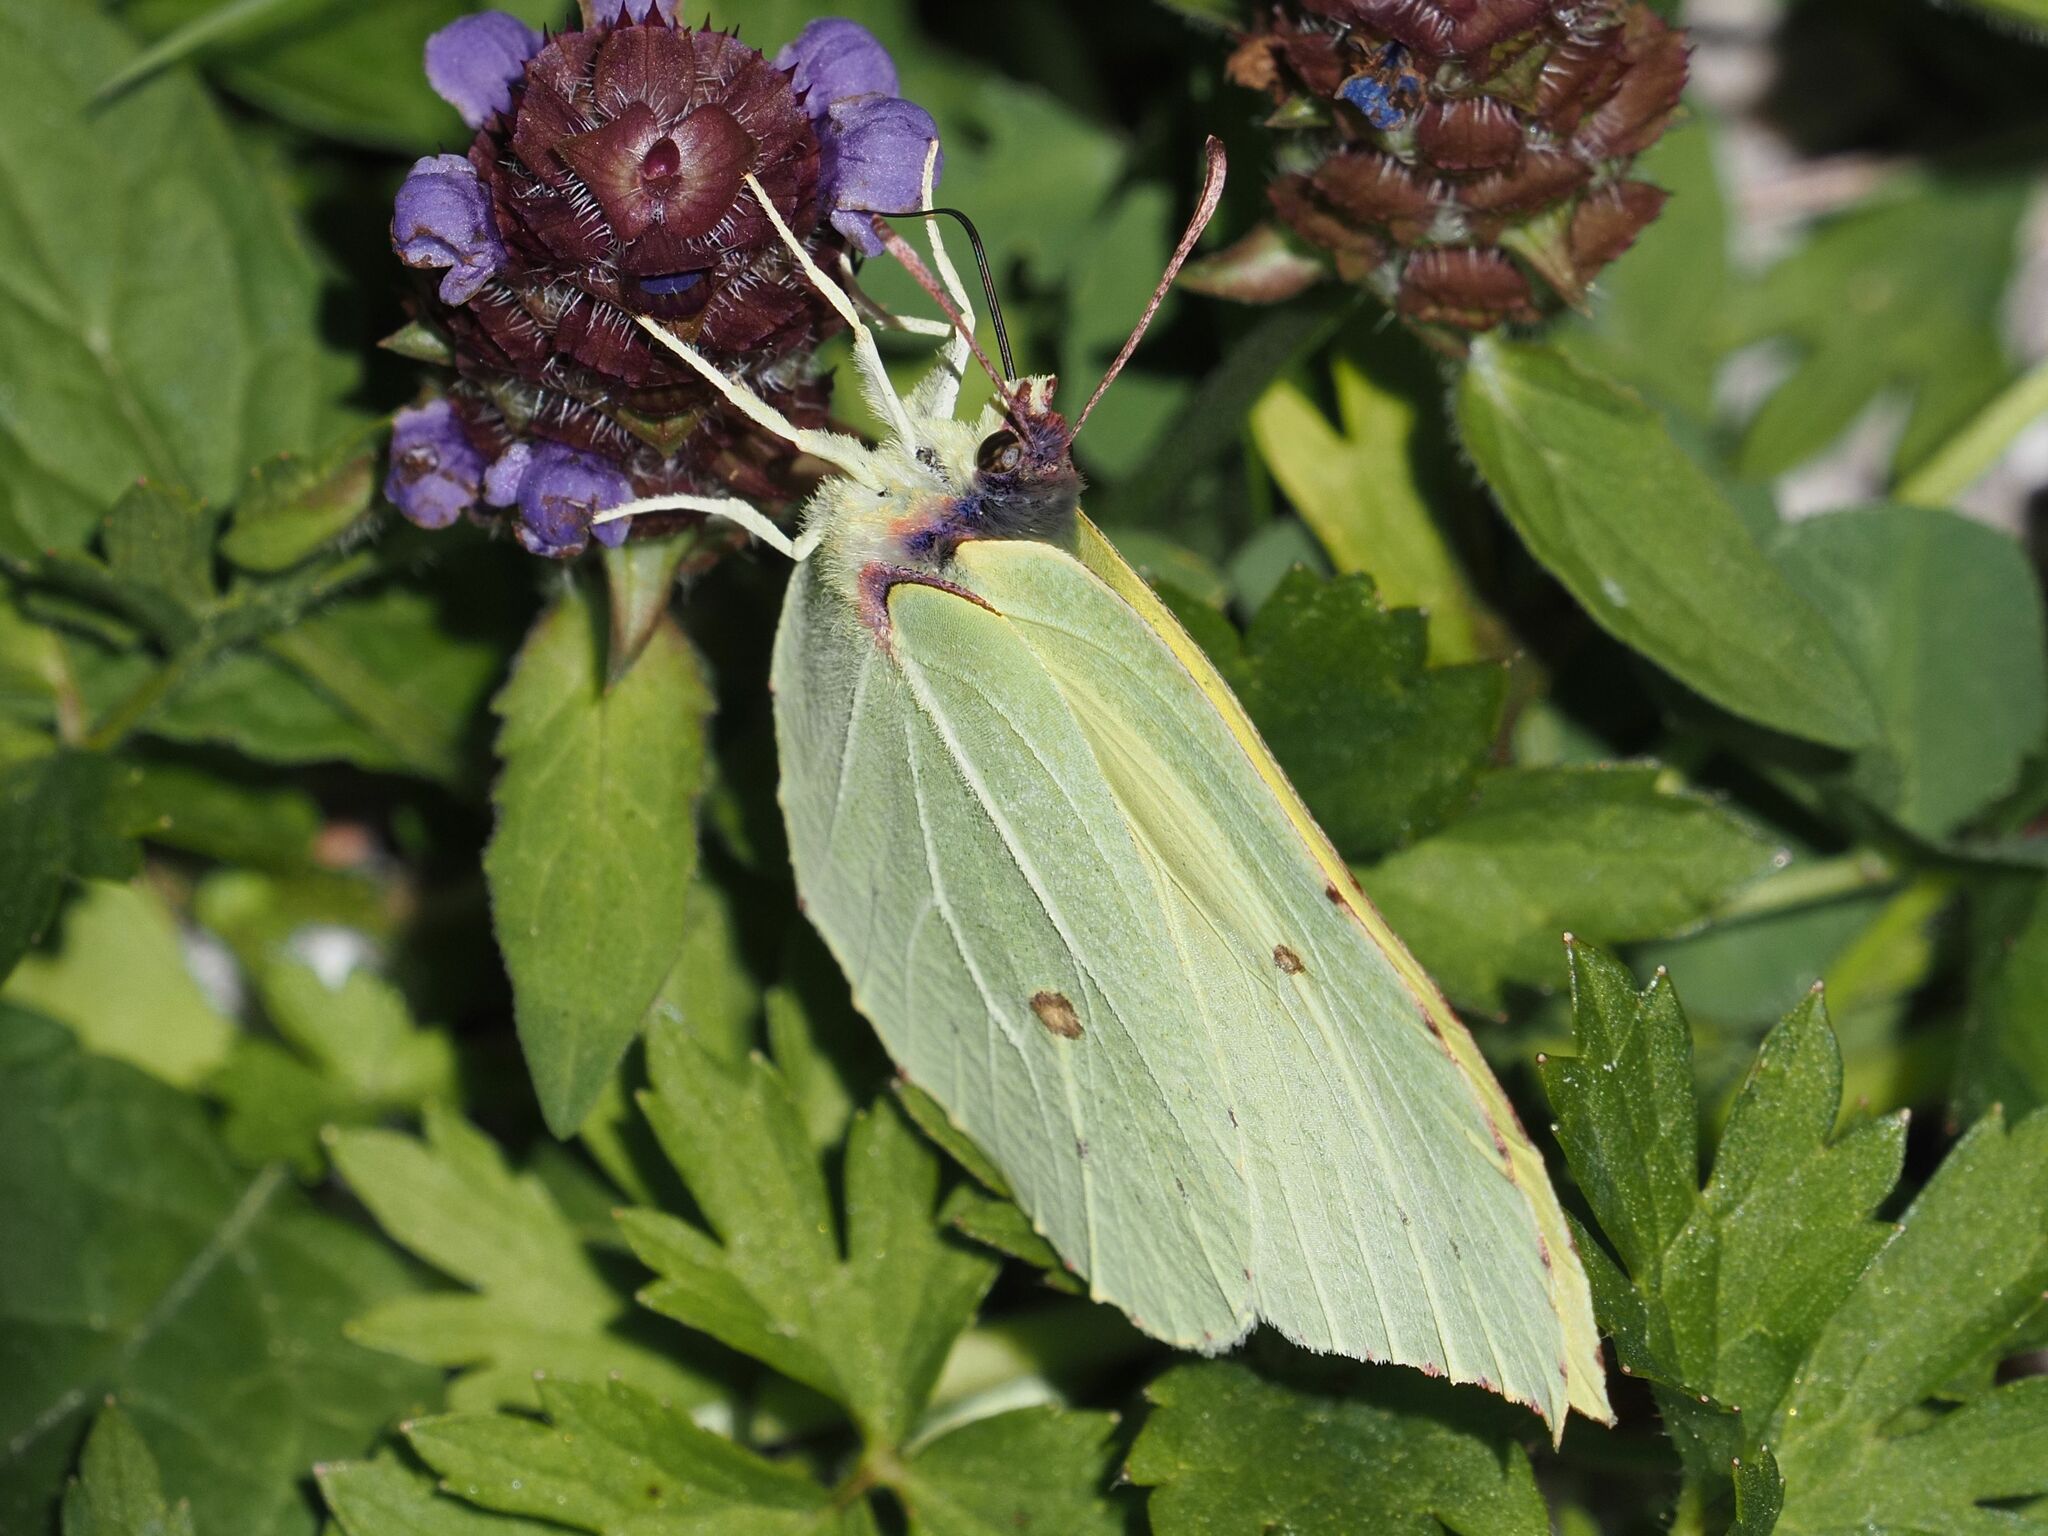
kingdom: Animalia
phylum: Arthropoda
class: Insecta
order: Lepidoptera
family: Pieridae
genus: Gonepteryx
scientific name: Gonepteryx rhamni
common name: Brimstone
